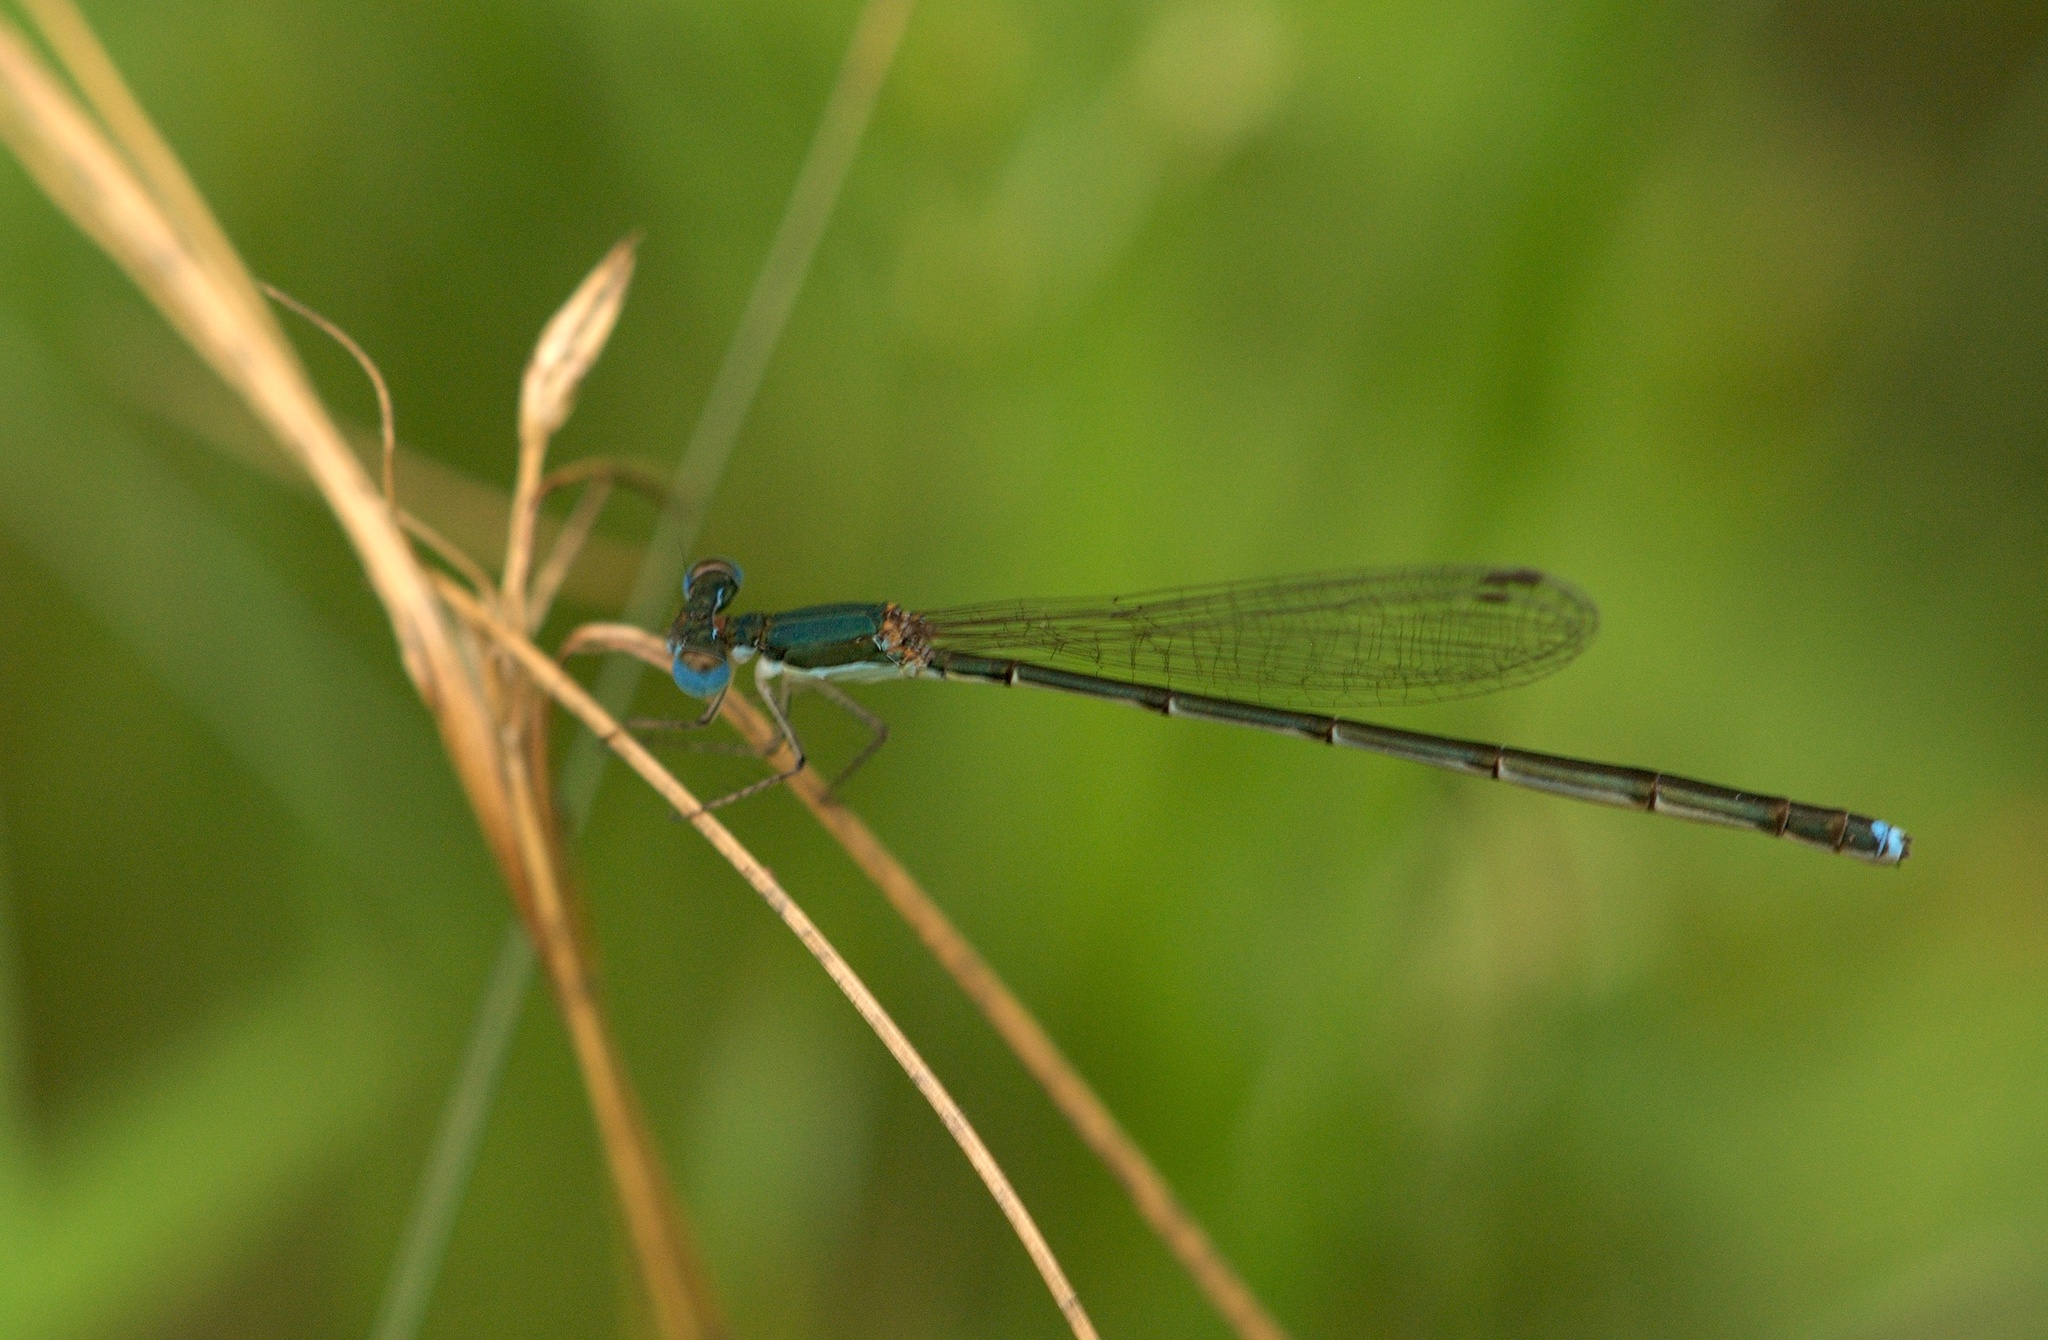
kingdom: Animalia
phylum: Arthropoda
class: Insecta
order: Odonata
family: Coenagrionidae
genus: Nehalennia
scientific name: Nehalennia integricollis
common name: Southern sprite
